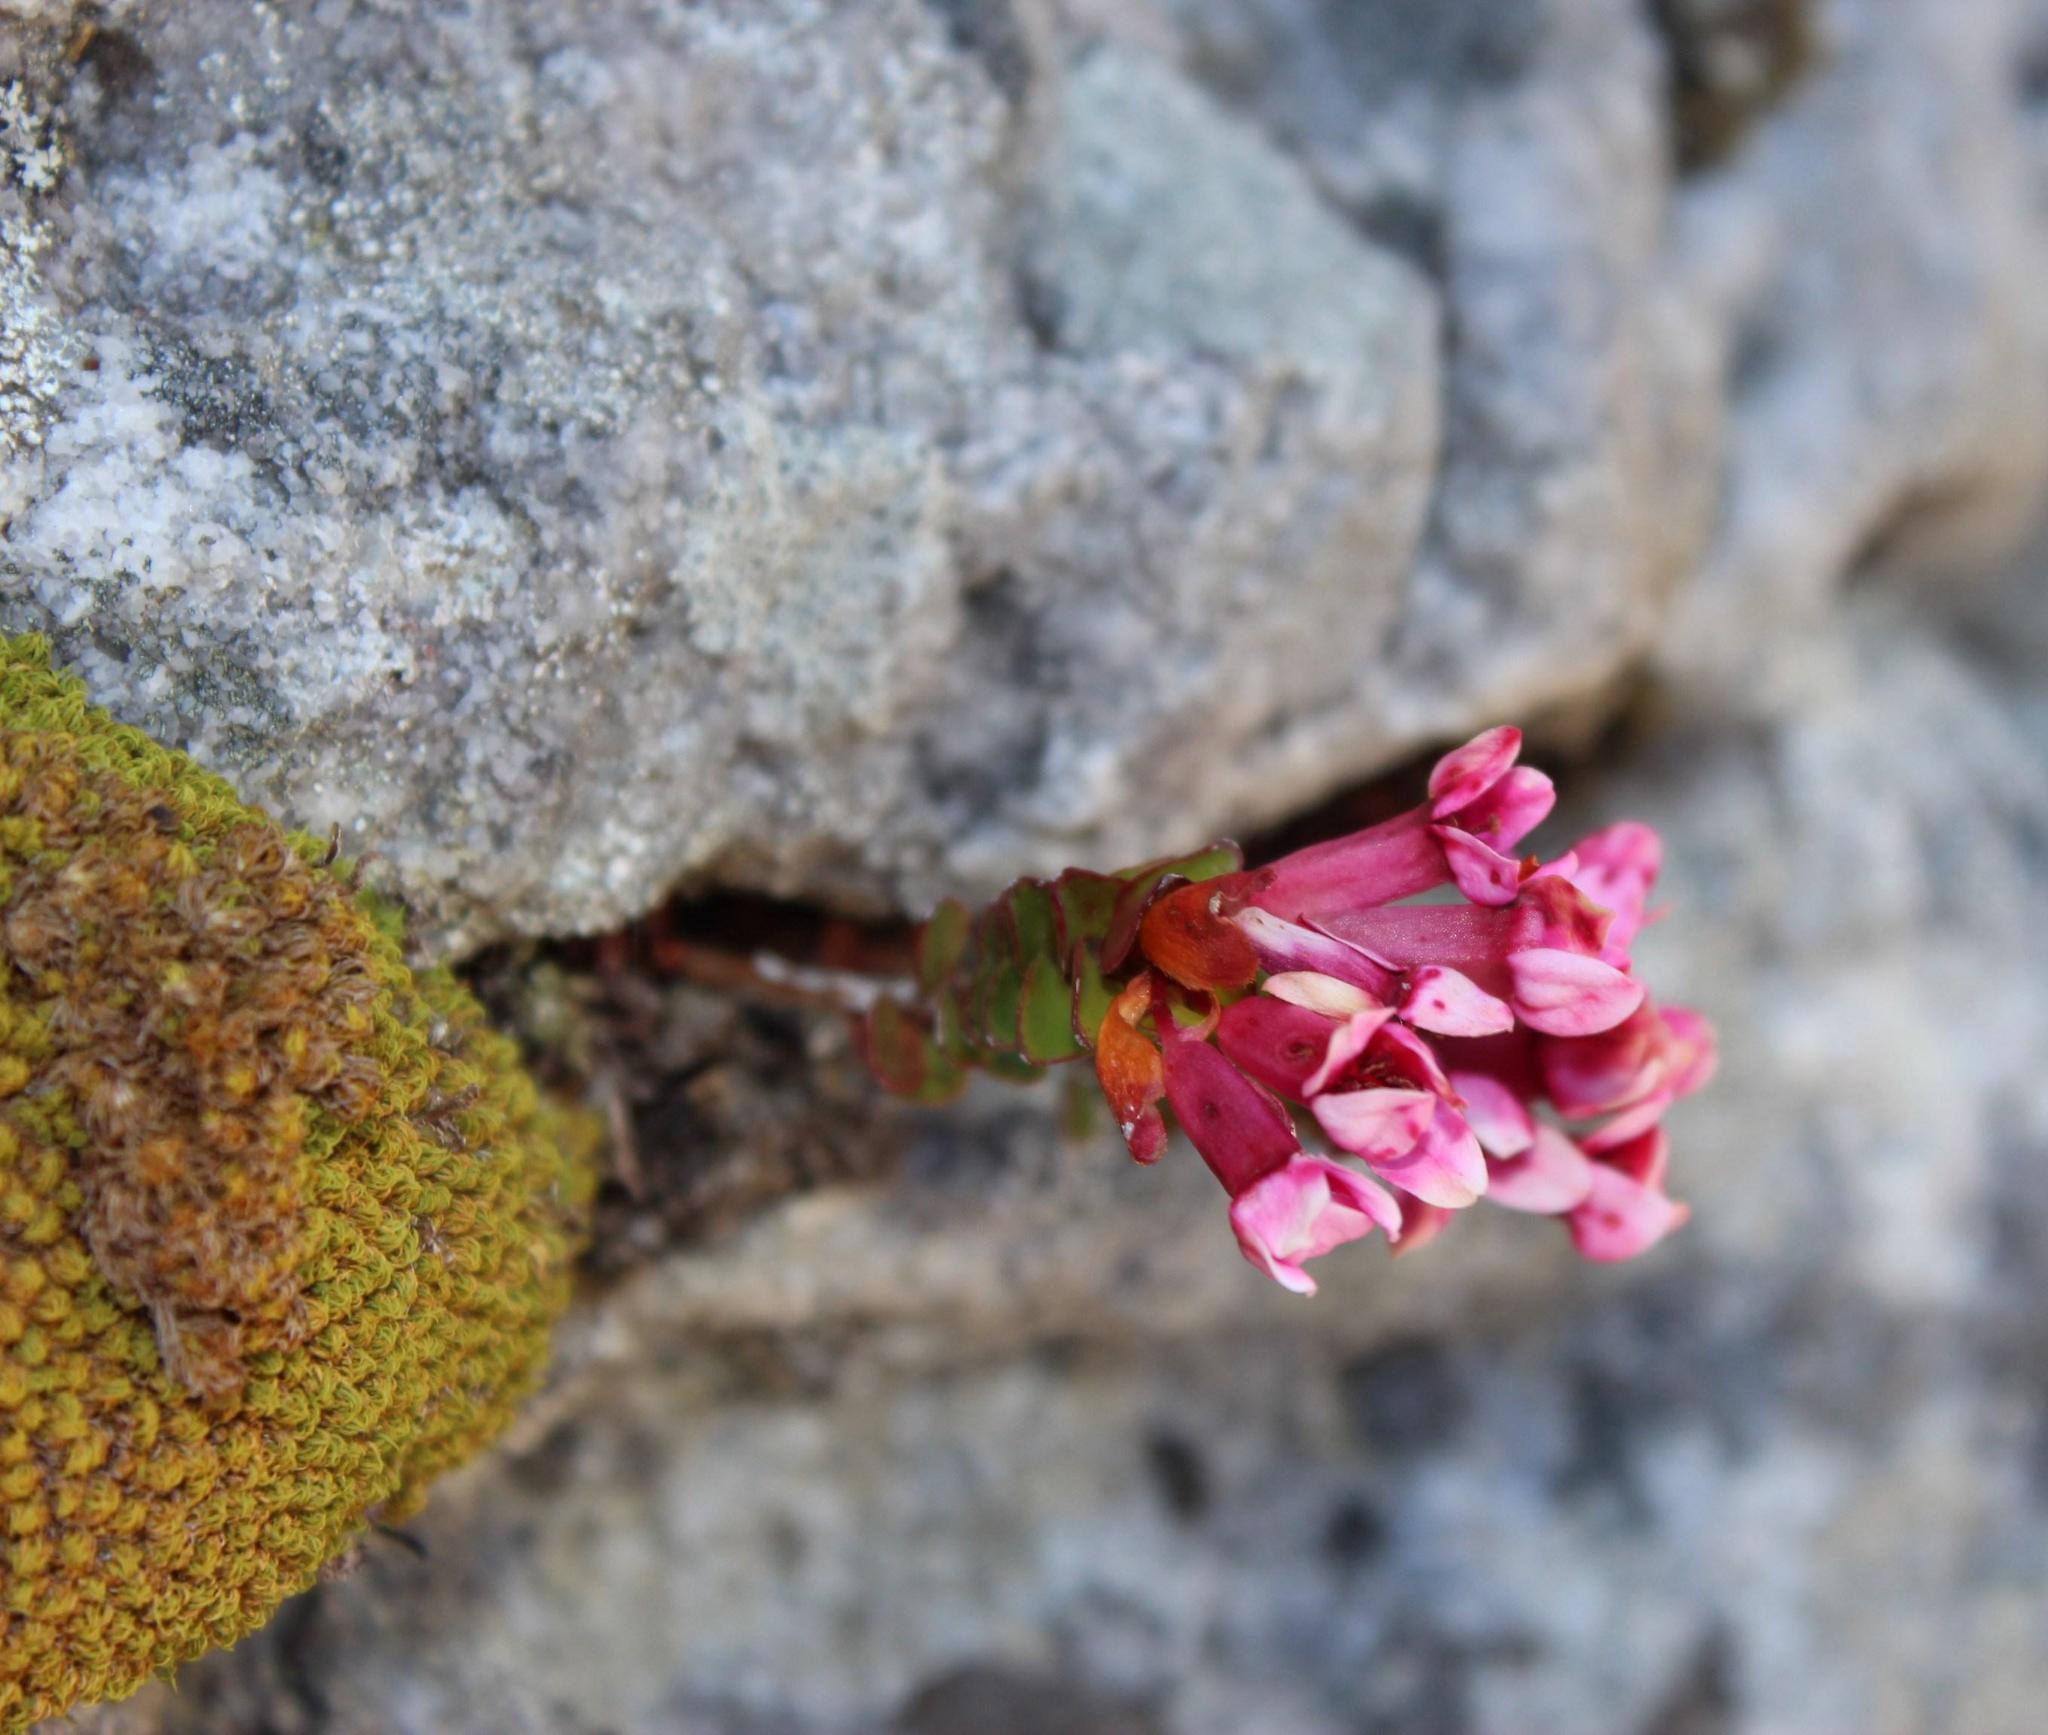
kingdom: Plantae
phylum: Tracheophyta
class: Magnoliopsida
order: Myrtales
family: Penaeaceae
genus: Sonderothamnus
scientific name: Sonderothamnus petraeus
